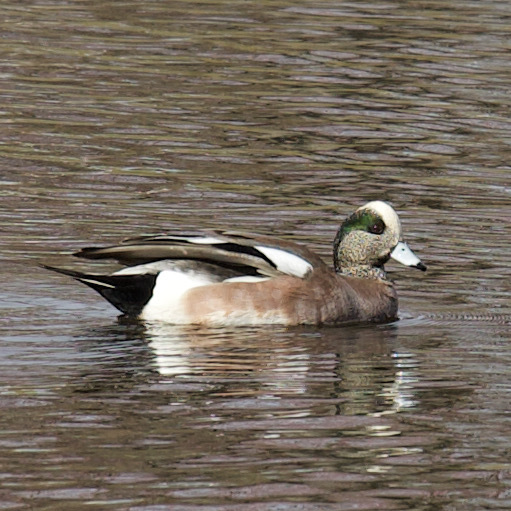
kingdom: Animalia
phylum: Chordata
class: Aves
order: Anseriformes
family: Anatidae
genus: Mareca
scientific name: Mareca americana
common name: American wigeon
